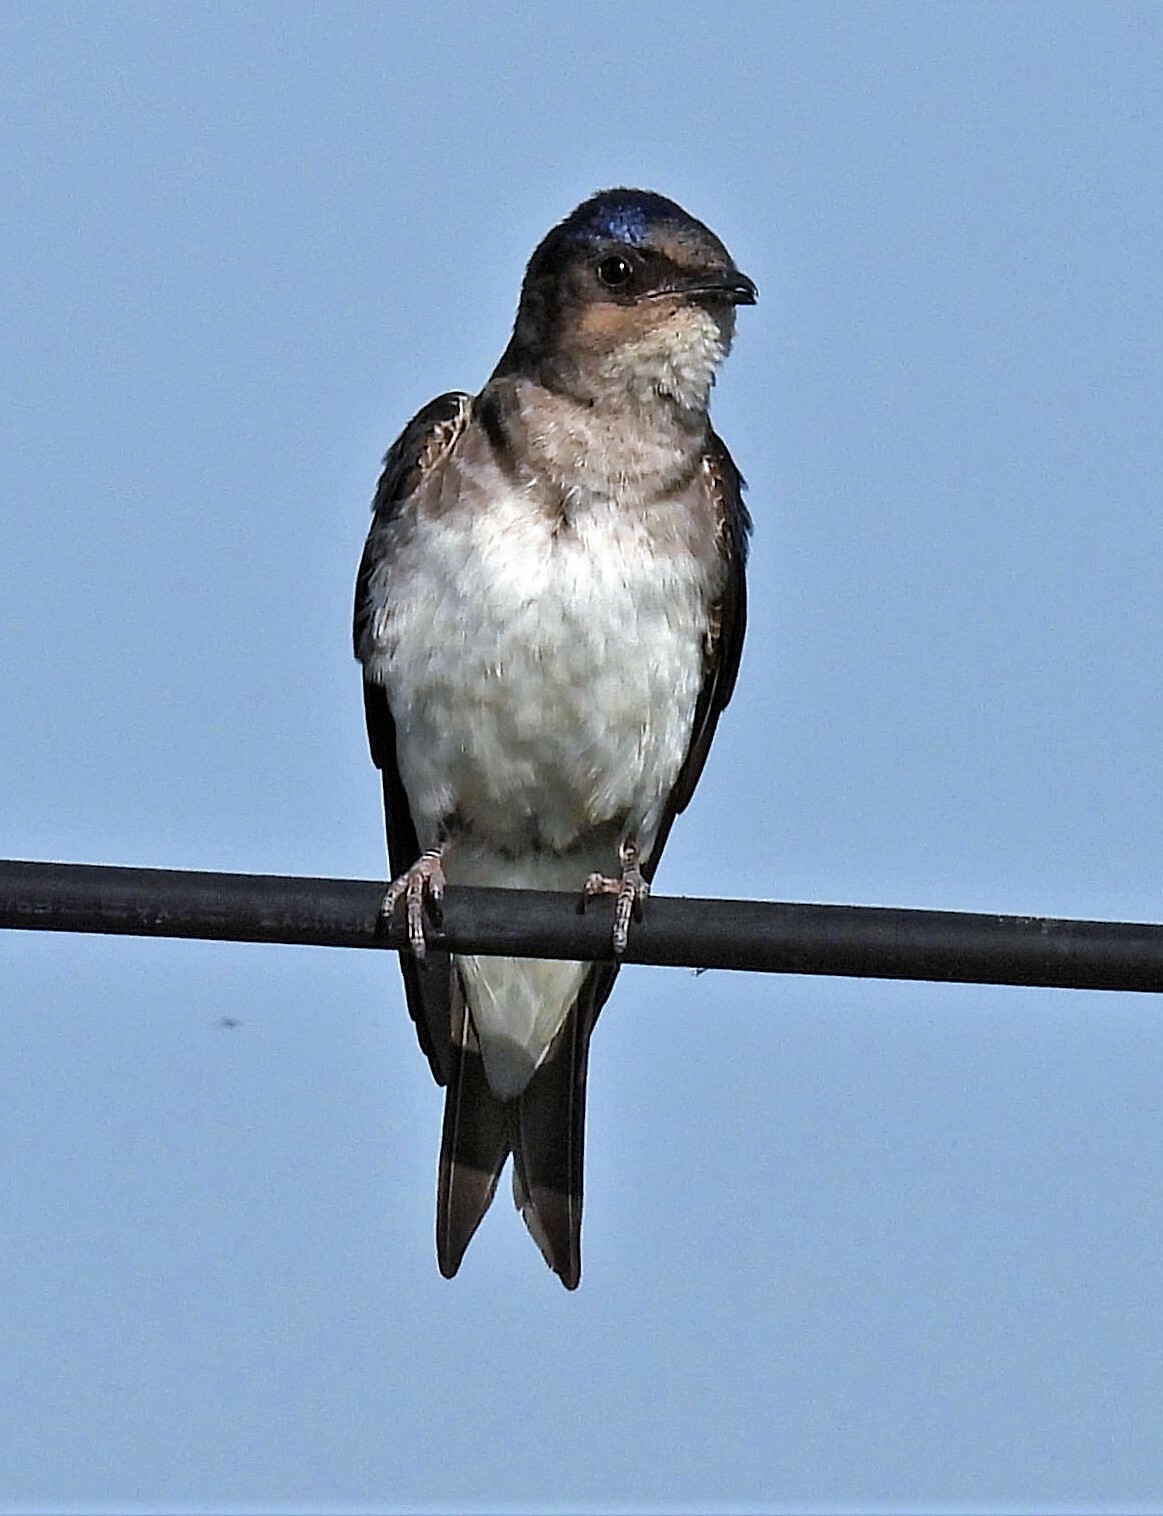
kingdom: Animalia
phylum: Chordata
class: Aves
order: Passeriformes
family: Hirundinidae
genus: Progne
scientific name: Progne chalybea
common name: Grey-breasted martin
